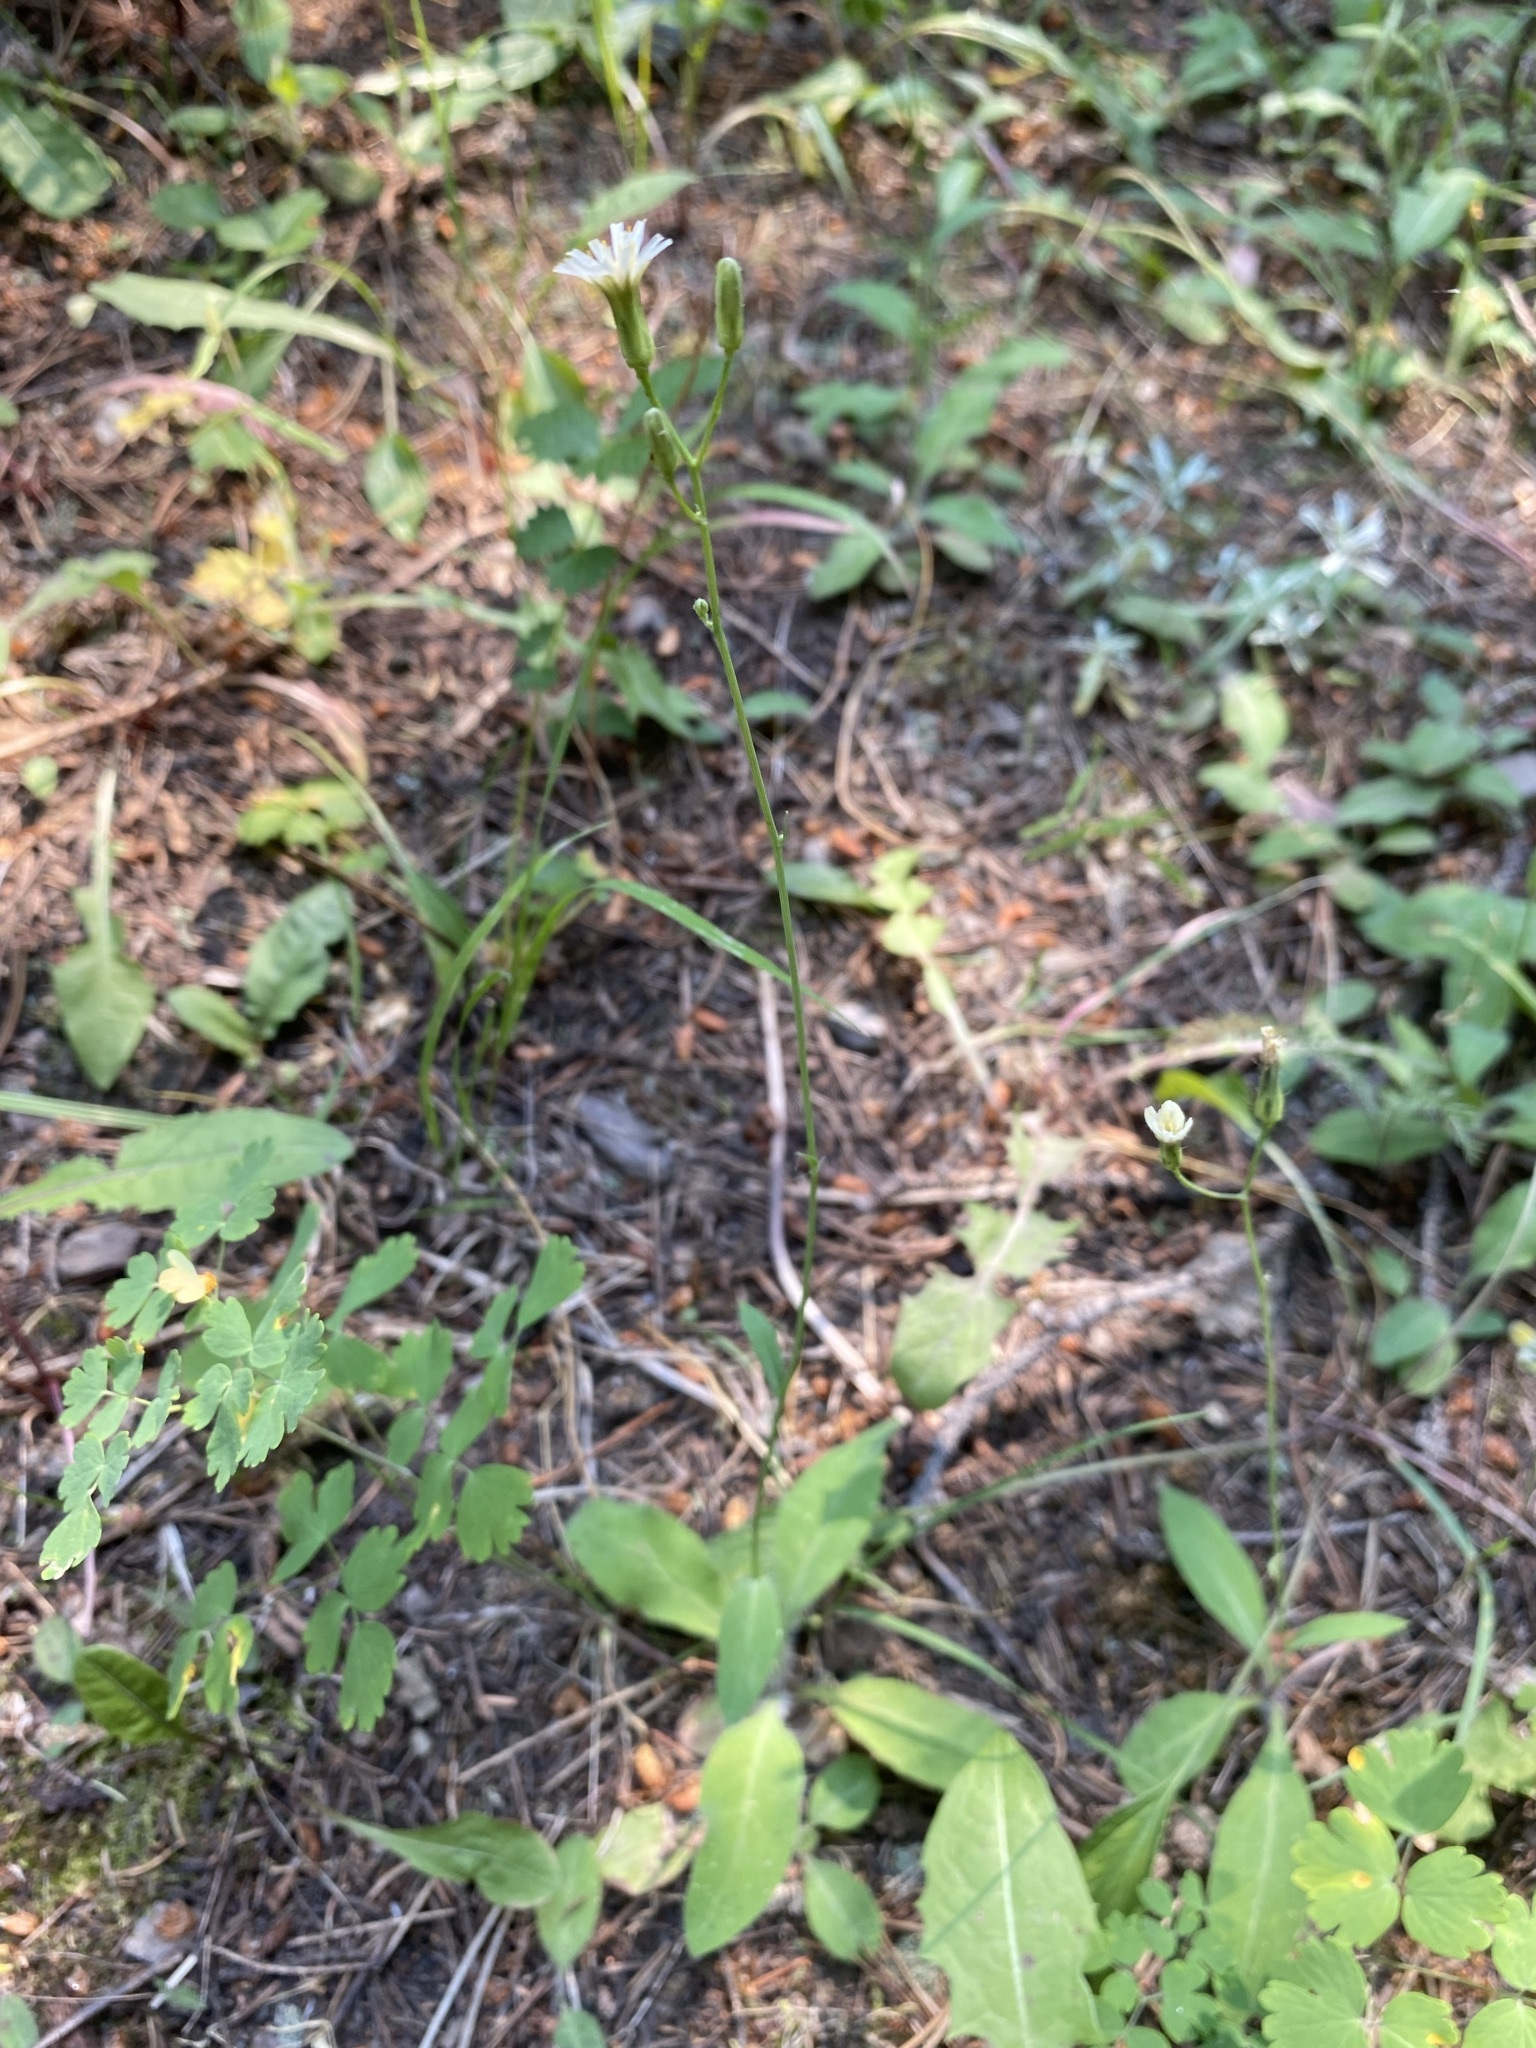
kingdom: Plantae
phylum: Tracheophyta
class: Magnoliopsida
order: Asterales
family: Asteraceae
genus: Hieracium
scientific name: Hieracium albiflorum
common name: White hawkweed
